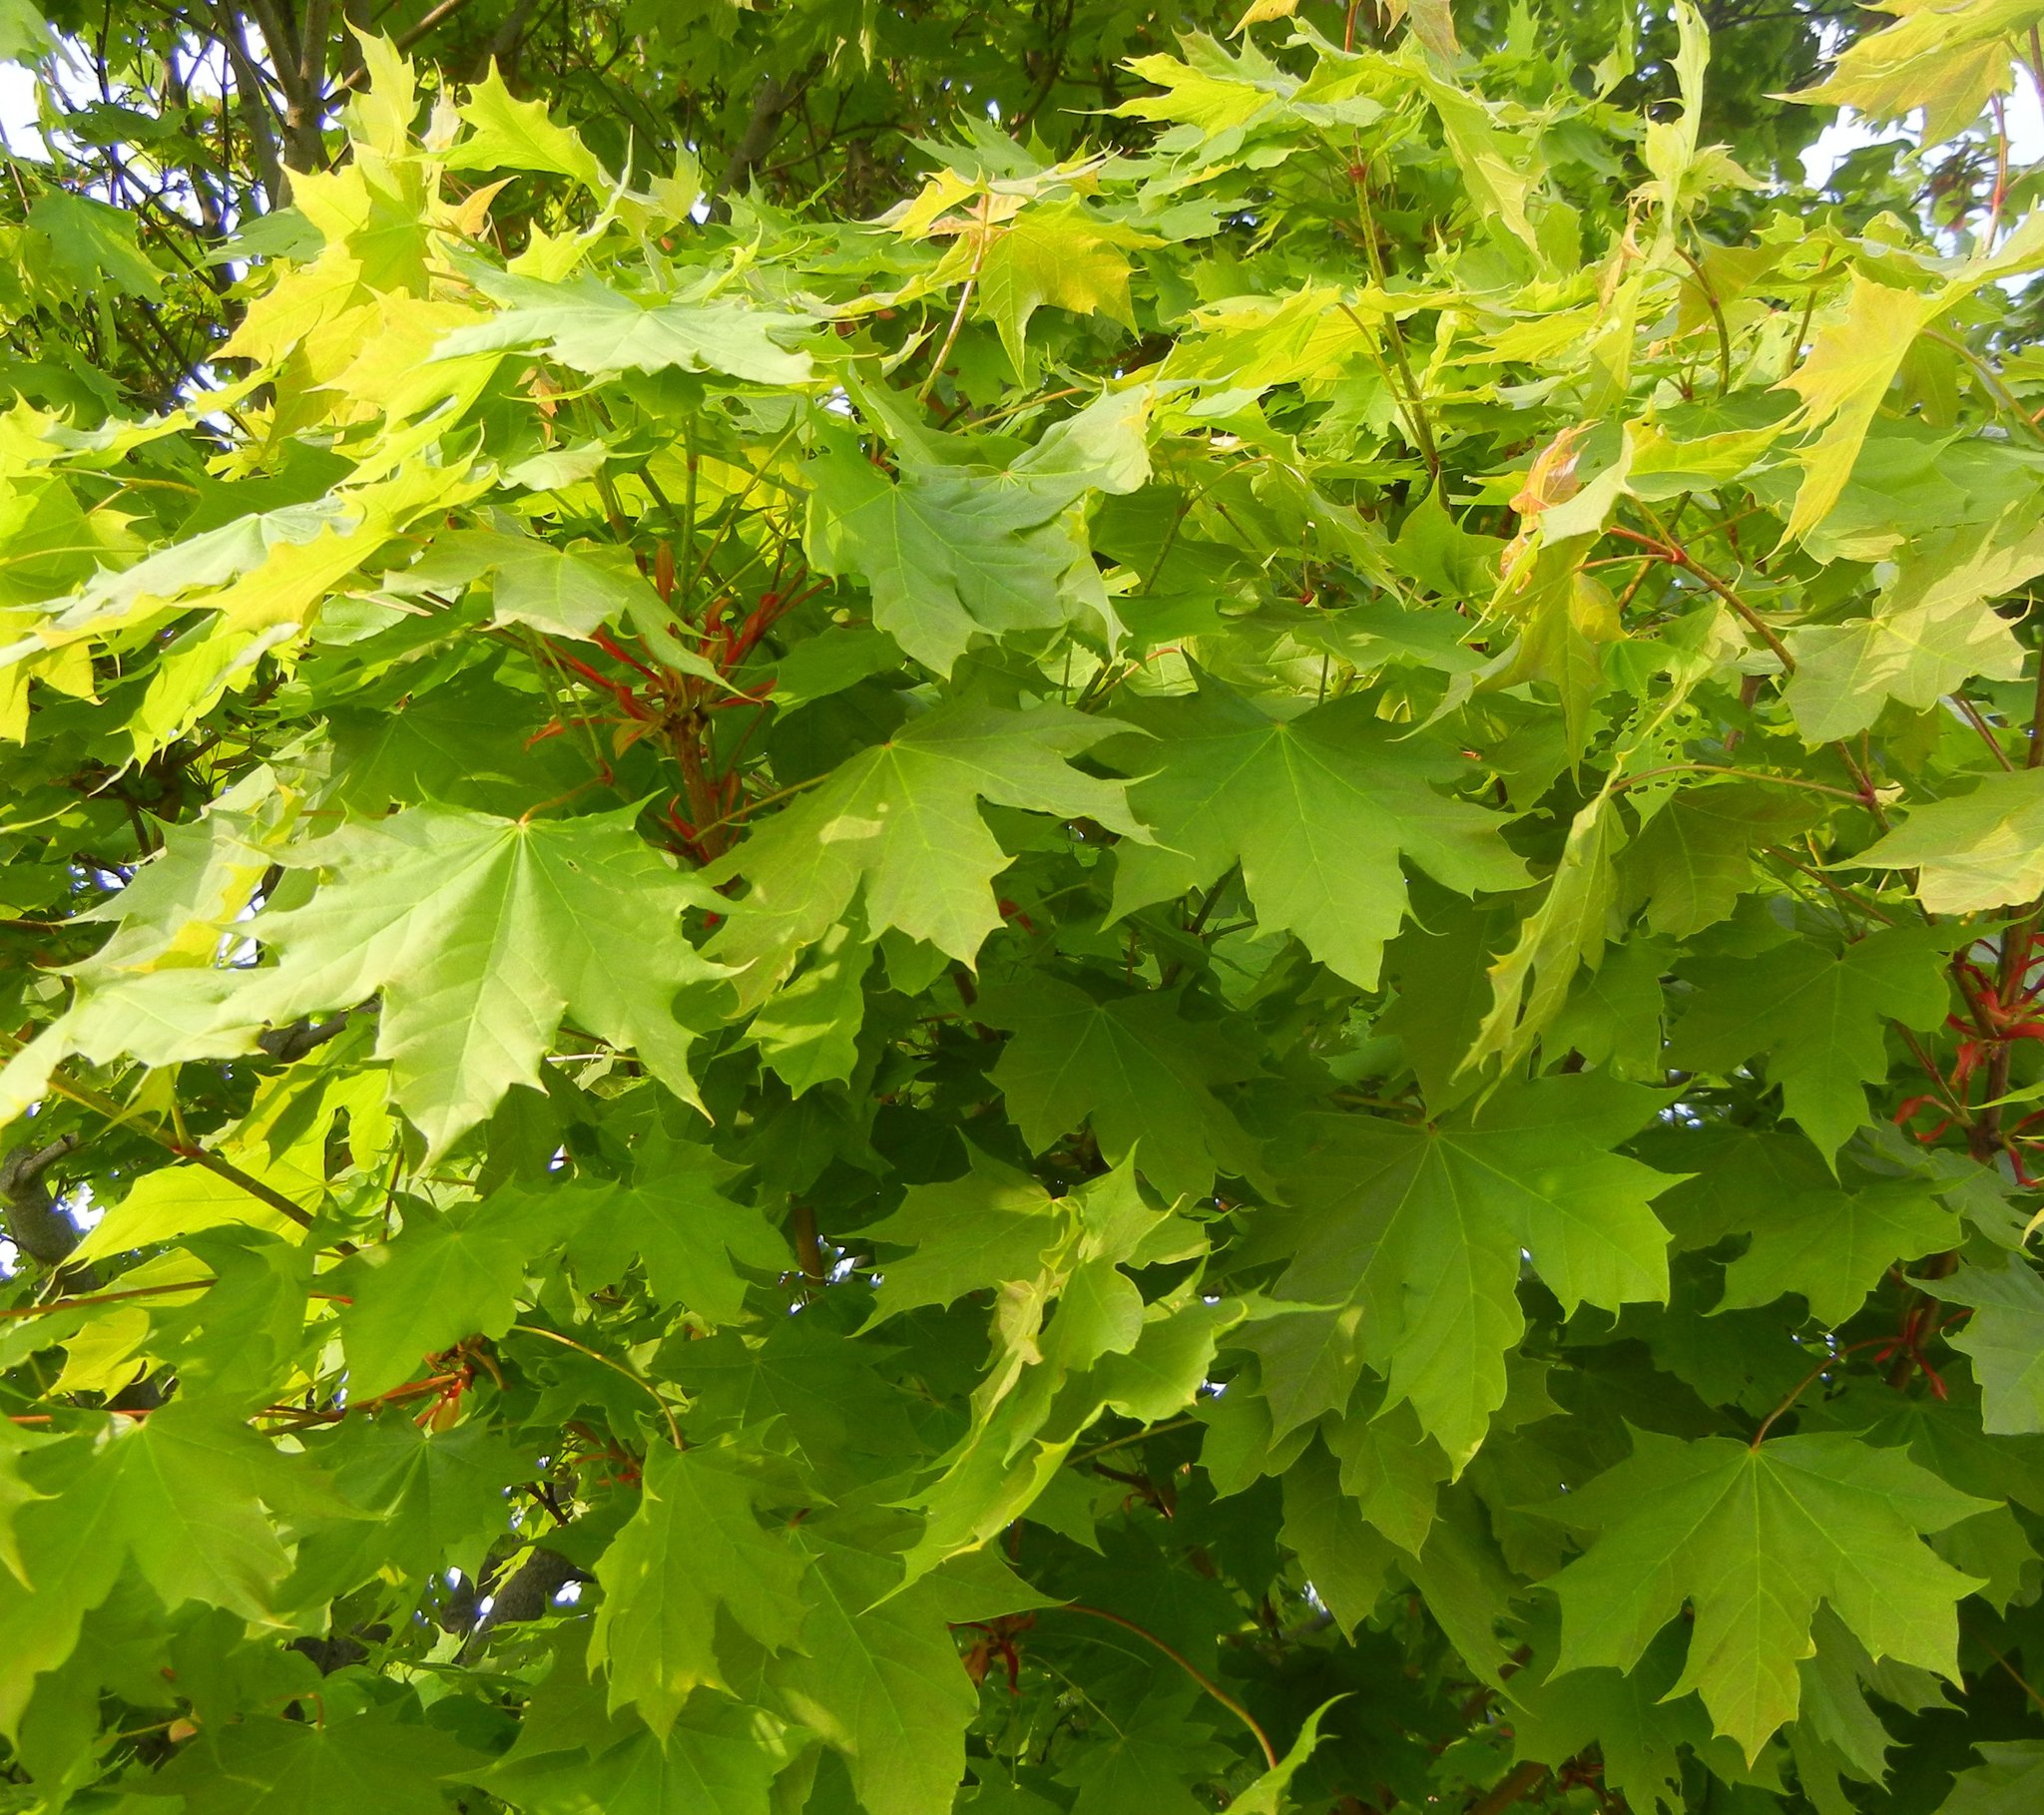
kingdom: Plantae
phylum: Tracheophyta
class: Magnoliopsida
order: Sapindales
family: Sapindaceae
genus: Acer
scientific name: Acer platanoides
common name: Norway maple
